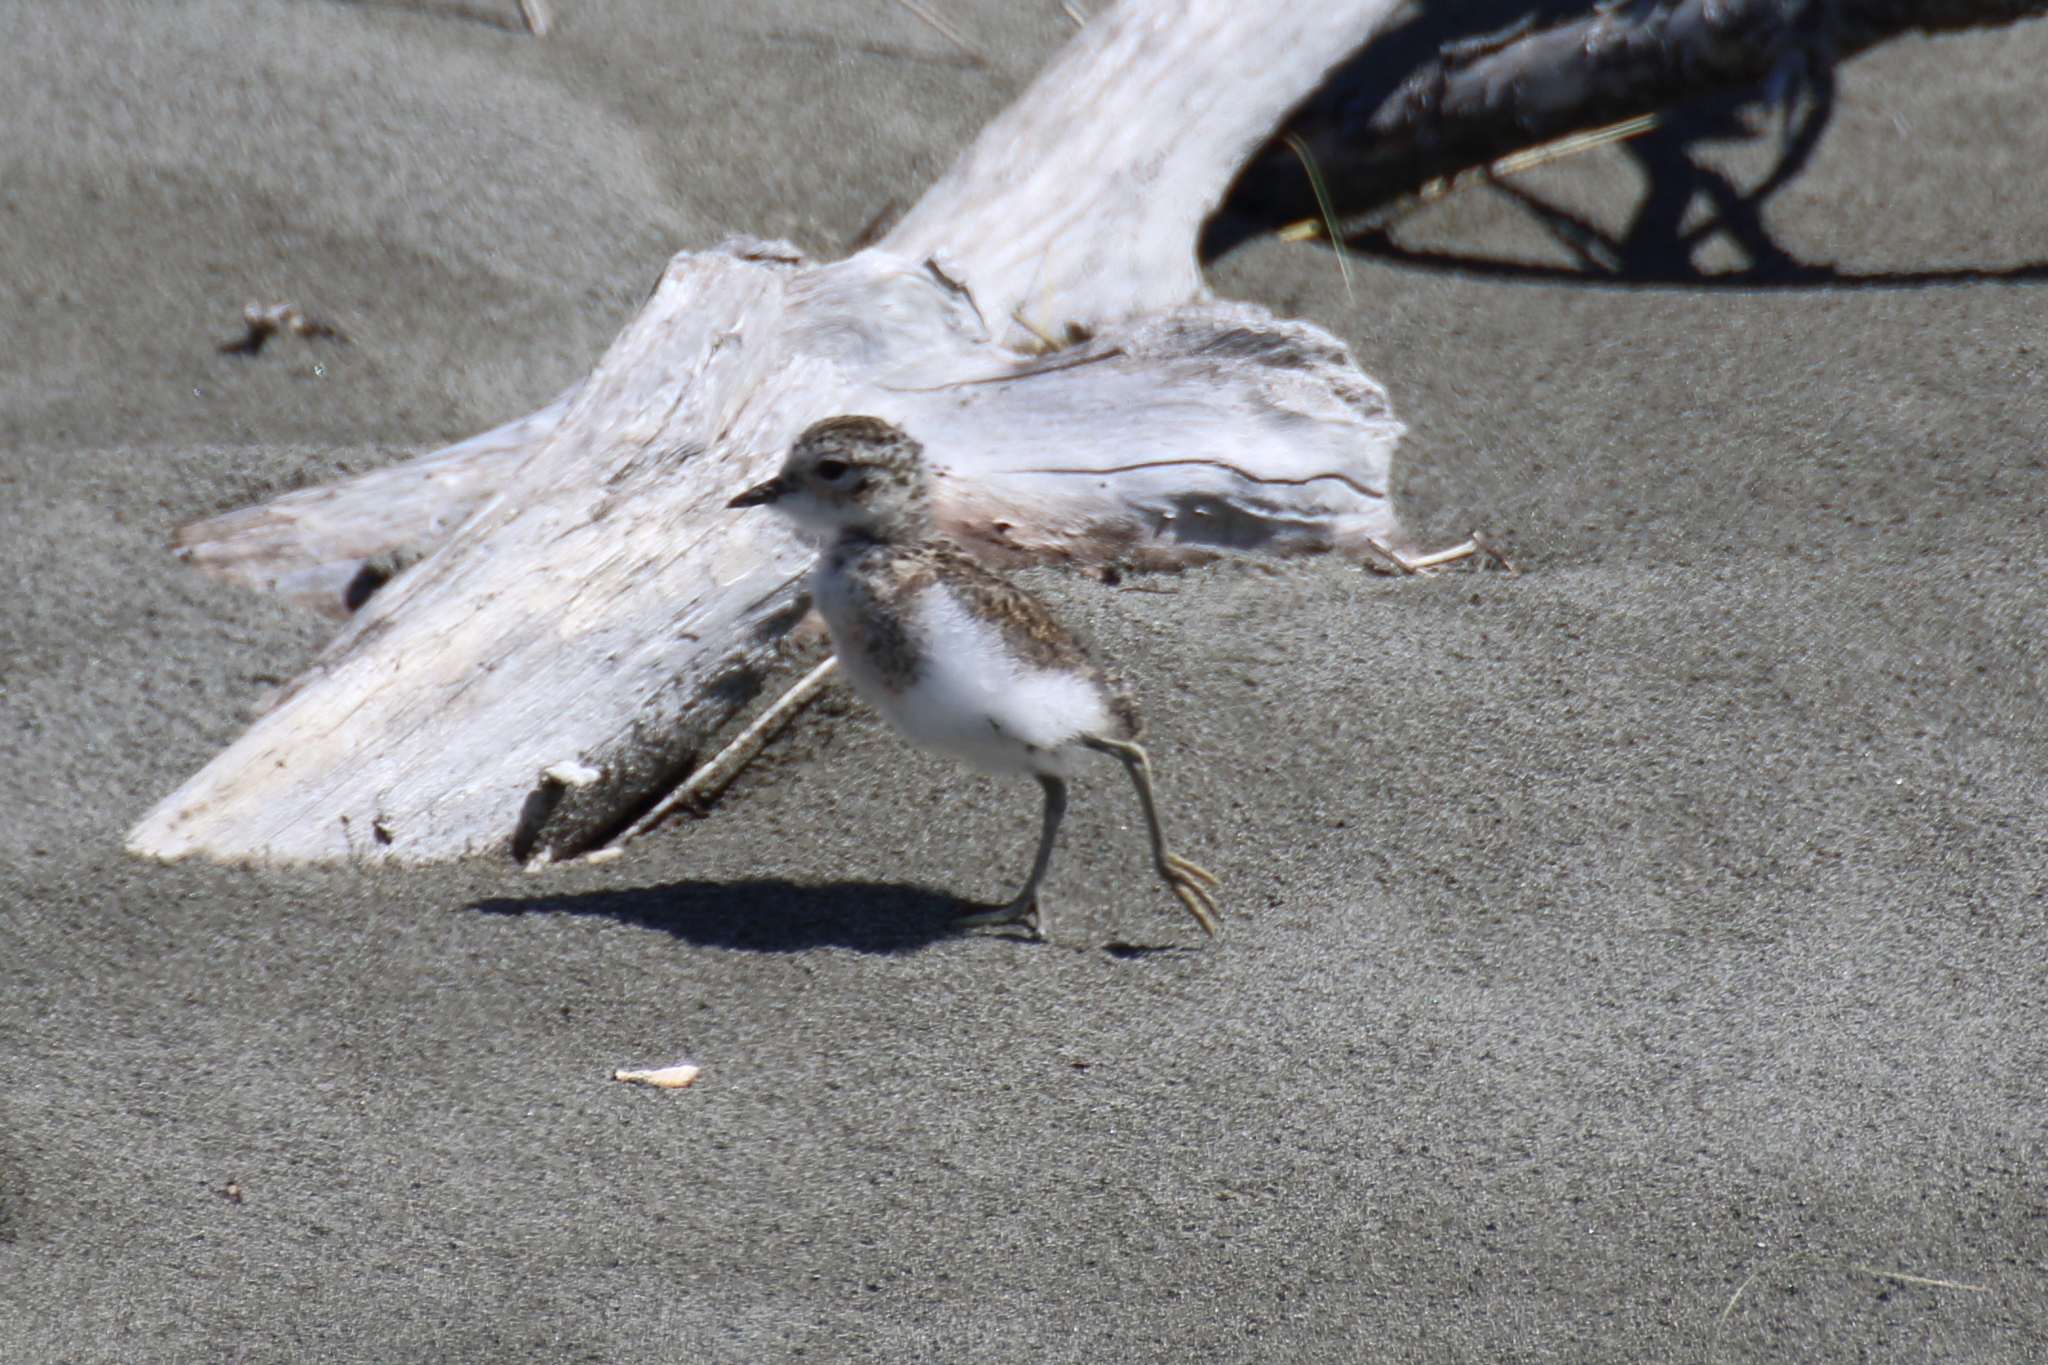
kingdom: Animalia
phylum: Chordata
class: Aves
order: Charadriiformes
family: Charadriidae
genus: Anarhynchus
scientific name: Anarhynchus
